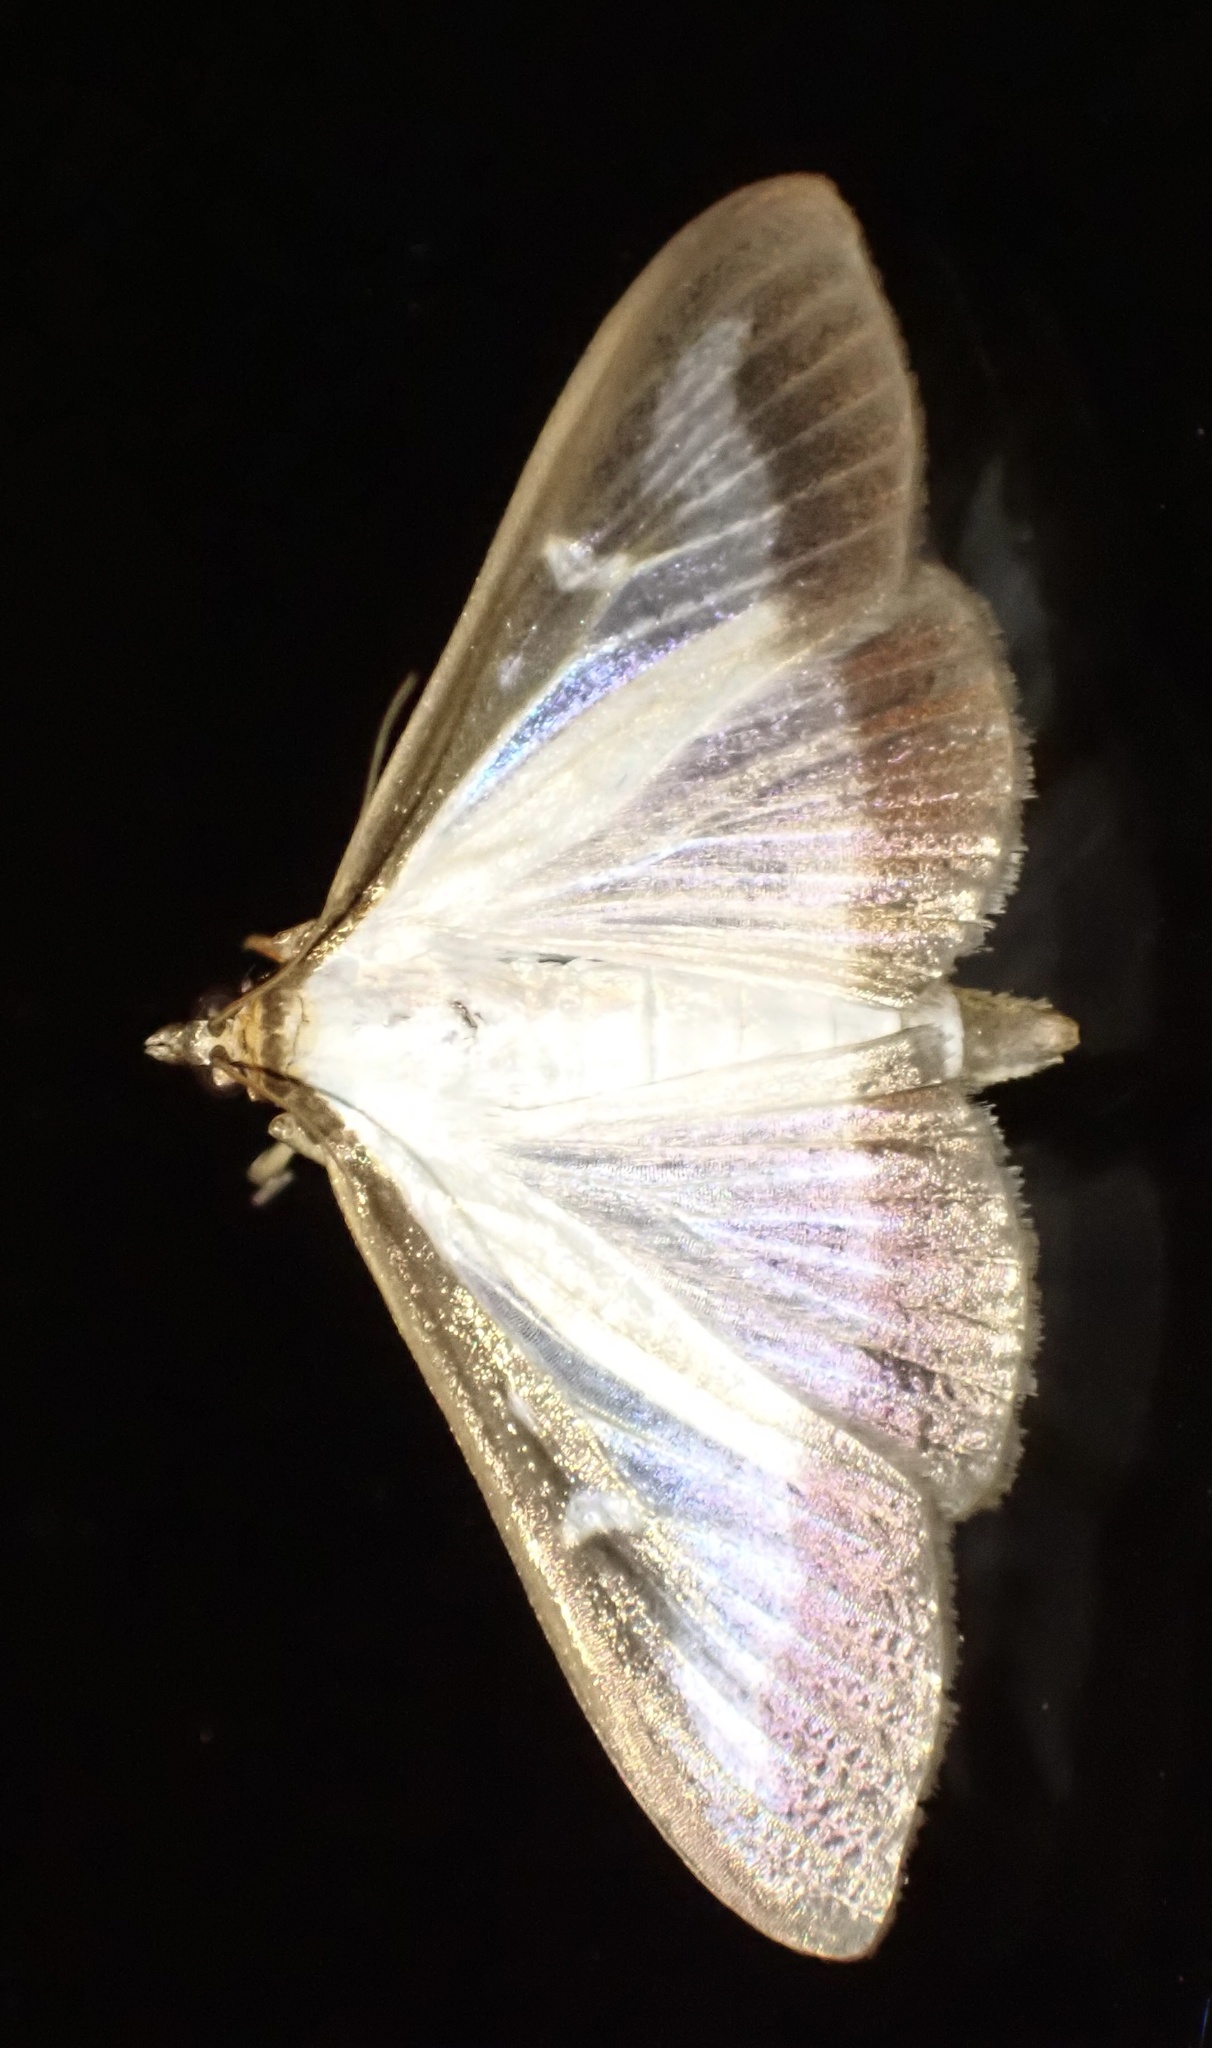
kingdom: Animalia
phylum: Arthropoda
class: Insecta
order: Lepidoptera
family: Crambidae
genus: Cydalima
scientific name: Cydalima perspectalis
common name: Box tree moth
